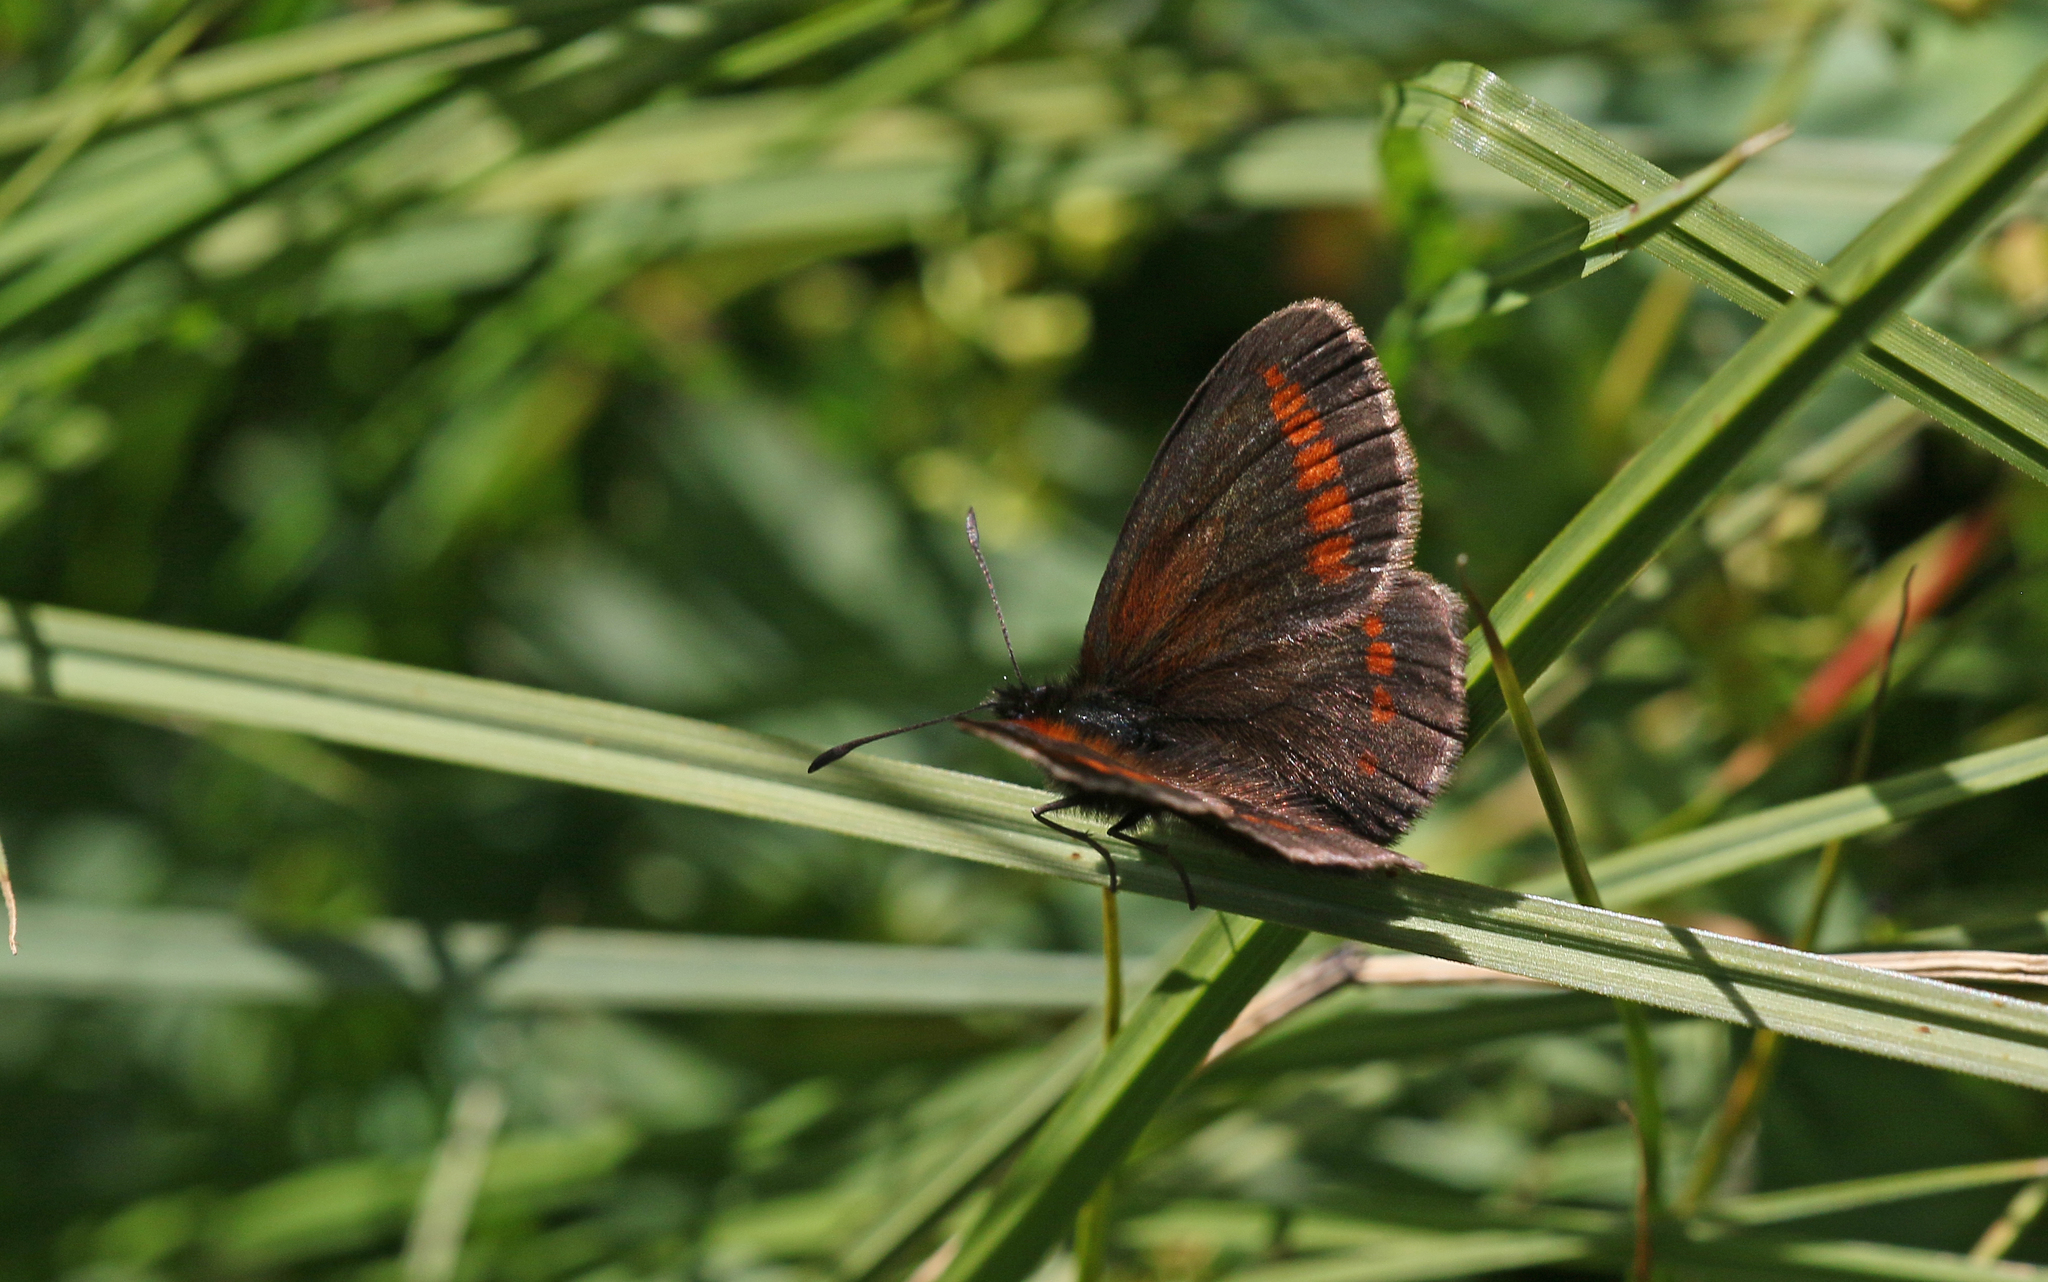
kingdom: Animalia
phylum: Arthropoda
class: Insecta
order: Lepidoptera
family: Nymphalidae
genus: Erebia
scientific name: Erebia
